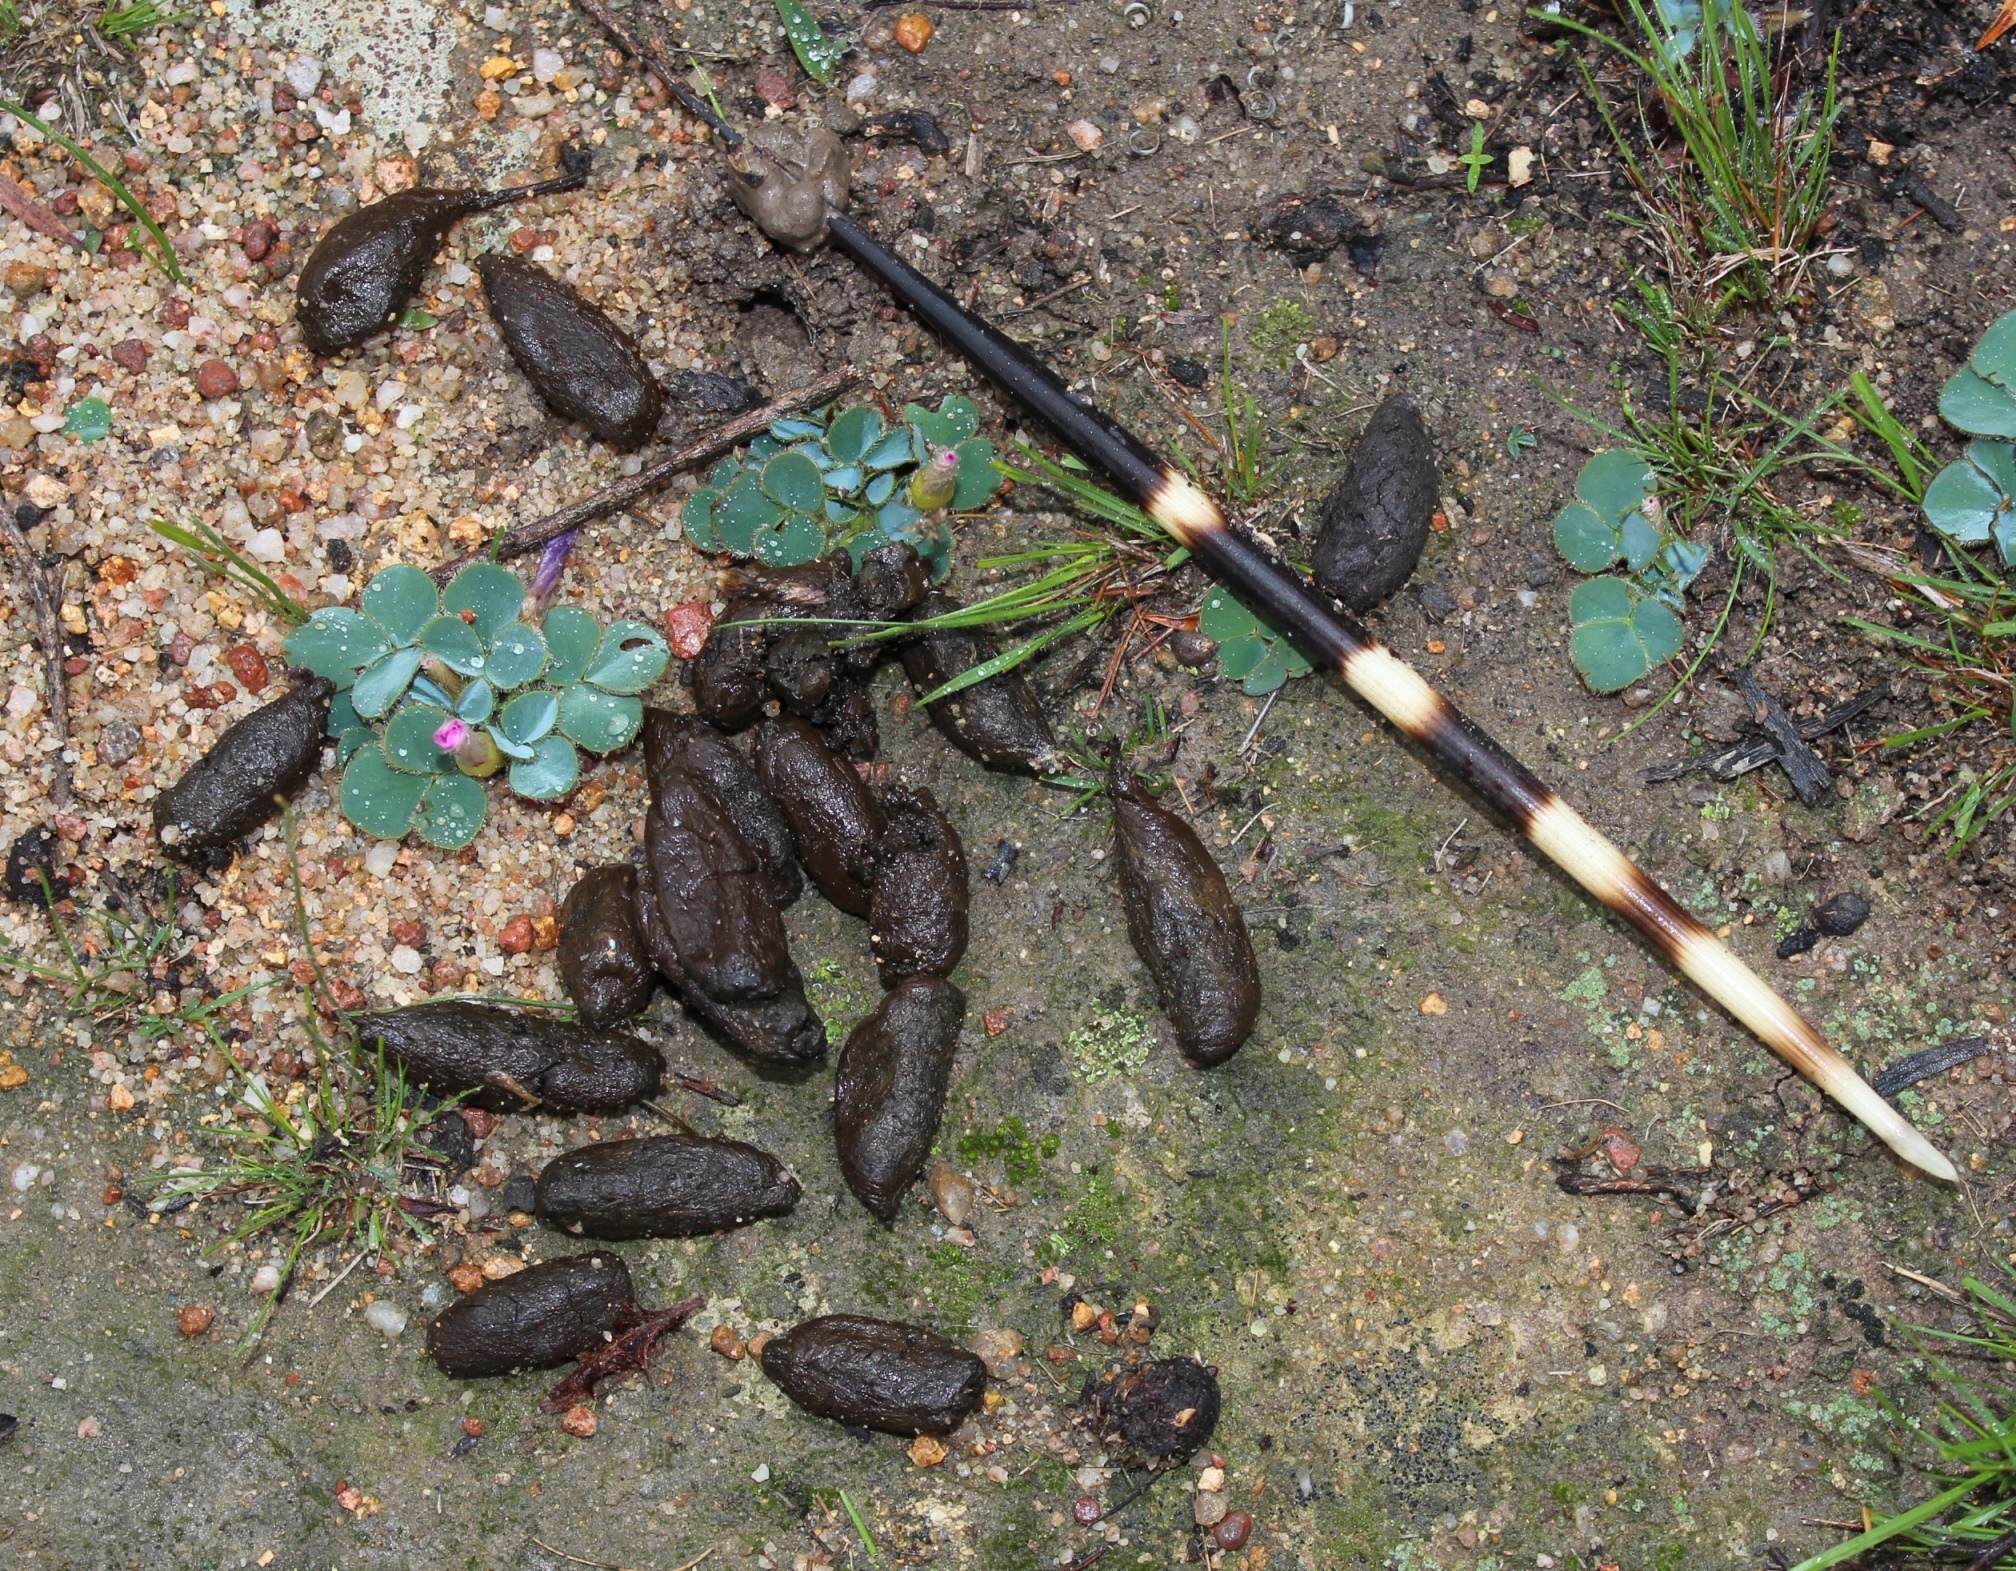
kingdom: Animalia
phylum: Chordata
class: Mammalia
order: Rodentia
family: Hystricidae
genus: Hystrix
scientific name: Hystrix africaeaustralis
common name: Cape porcupine
